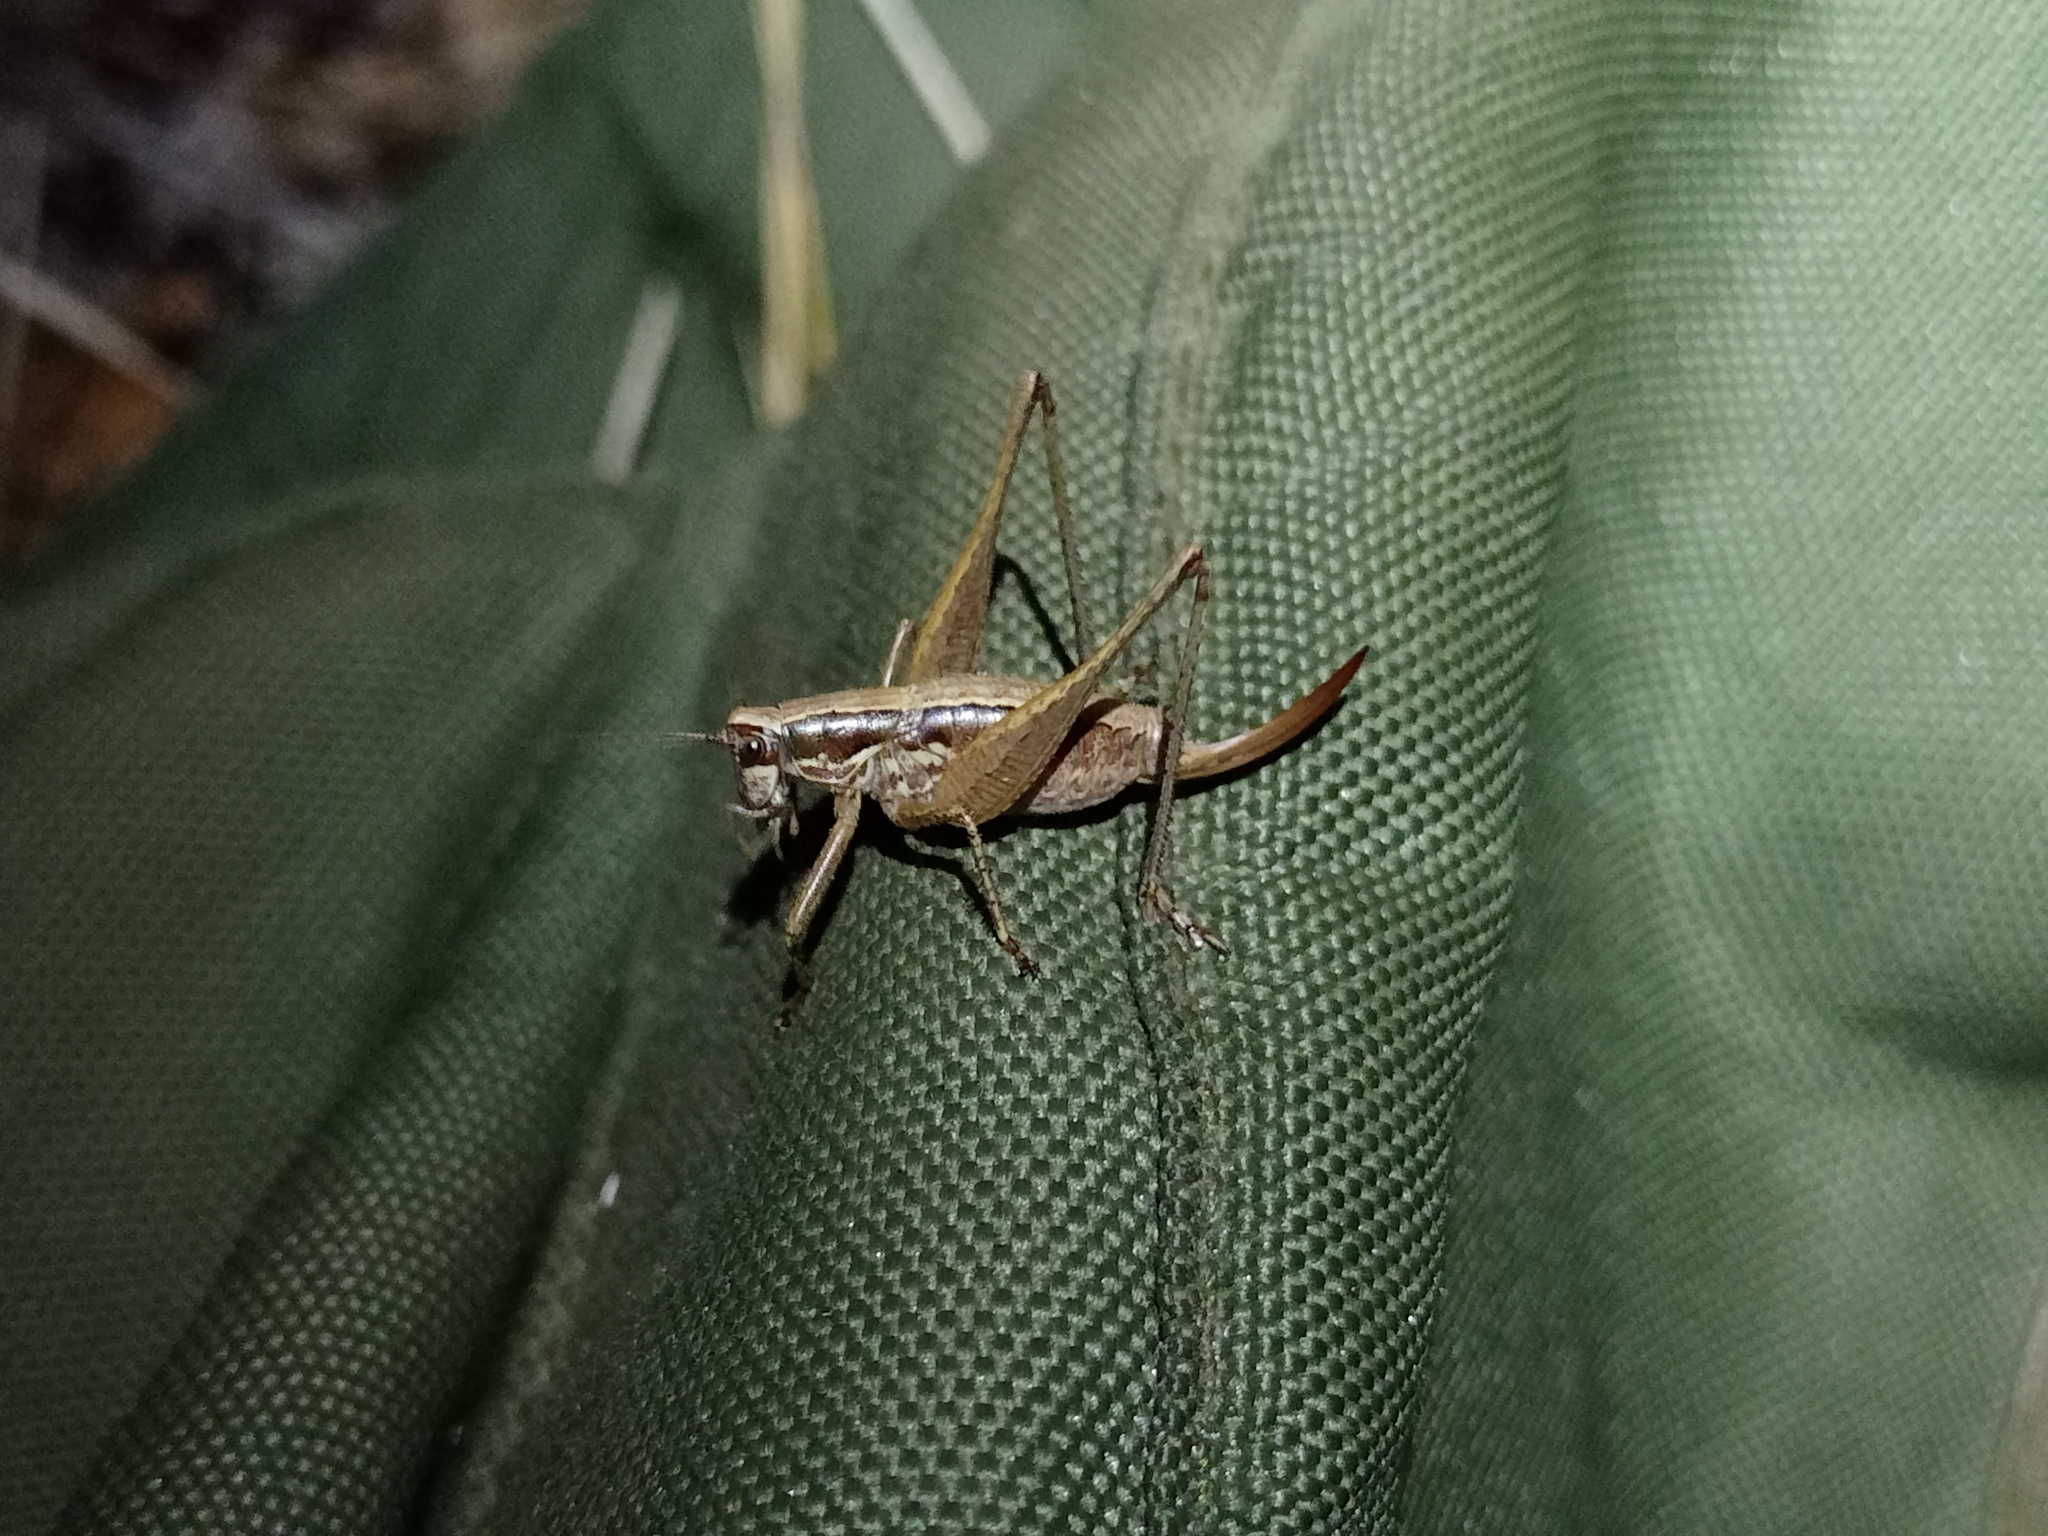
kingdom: Animalia
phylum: Arthropoda
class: Insecta
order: Orthoptera
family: Tettigoniidae
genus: Yersinella
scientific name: Yersinella raymondii
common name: Raymond's bush-cricket
